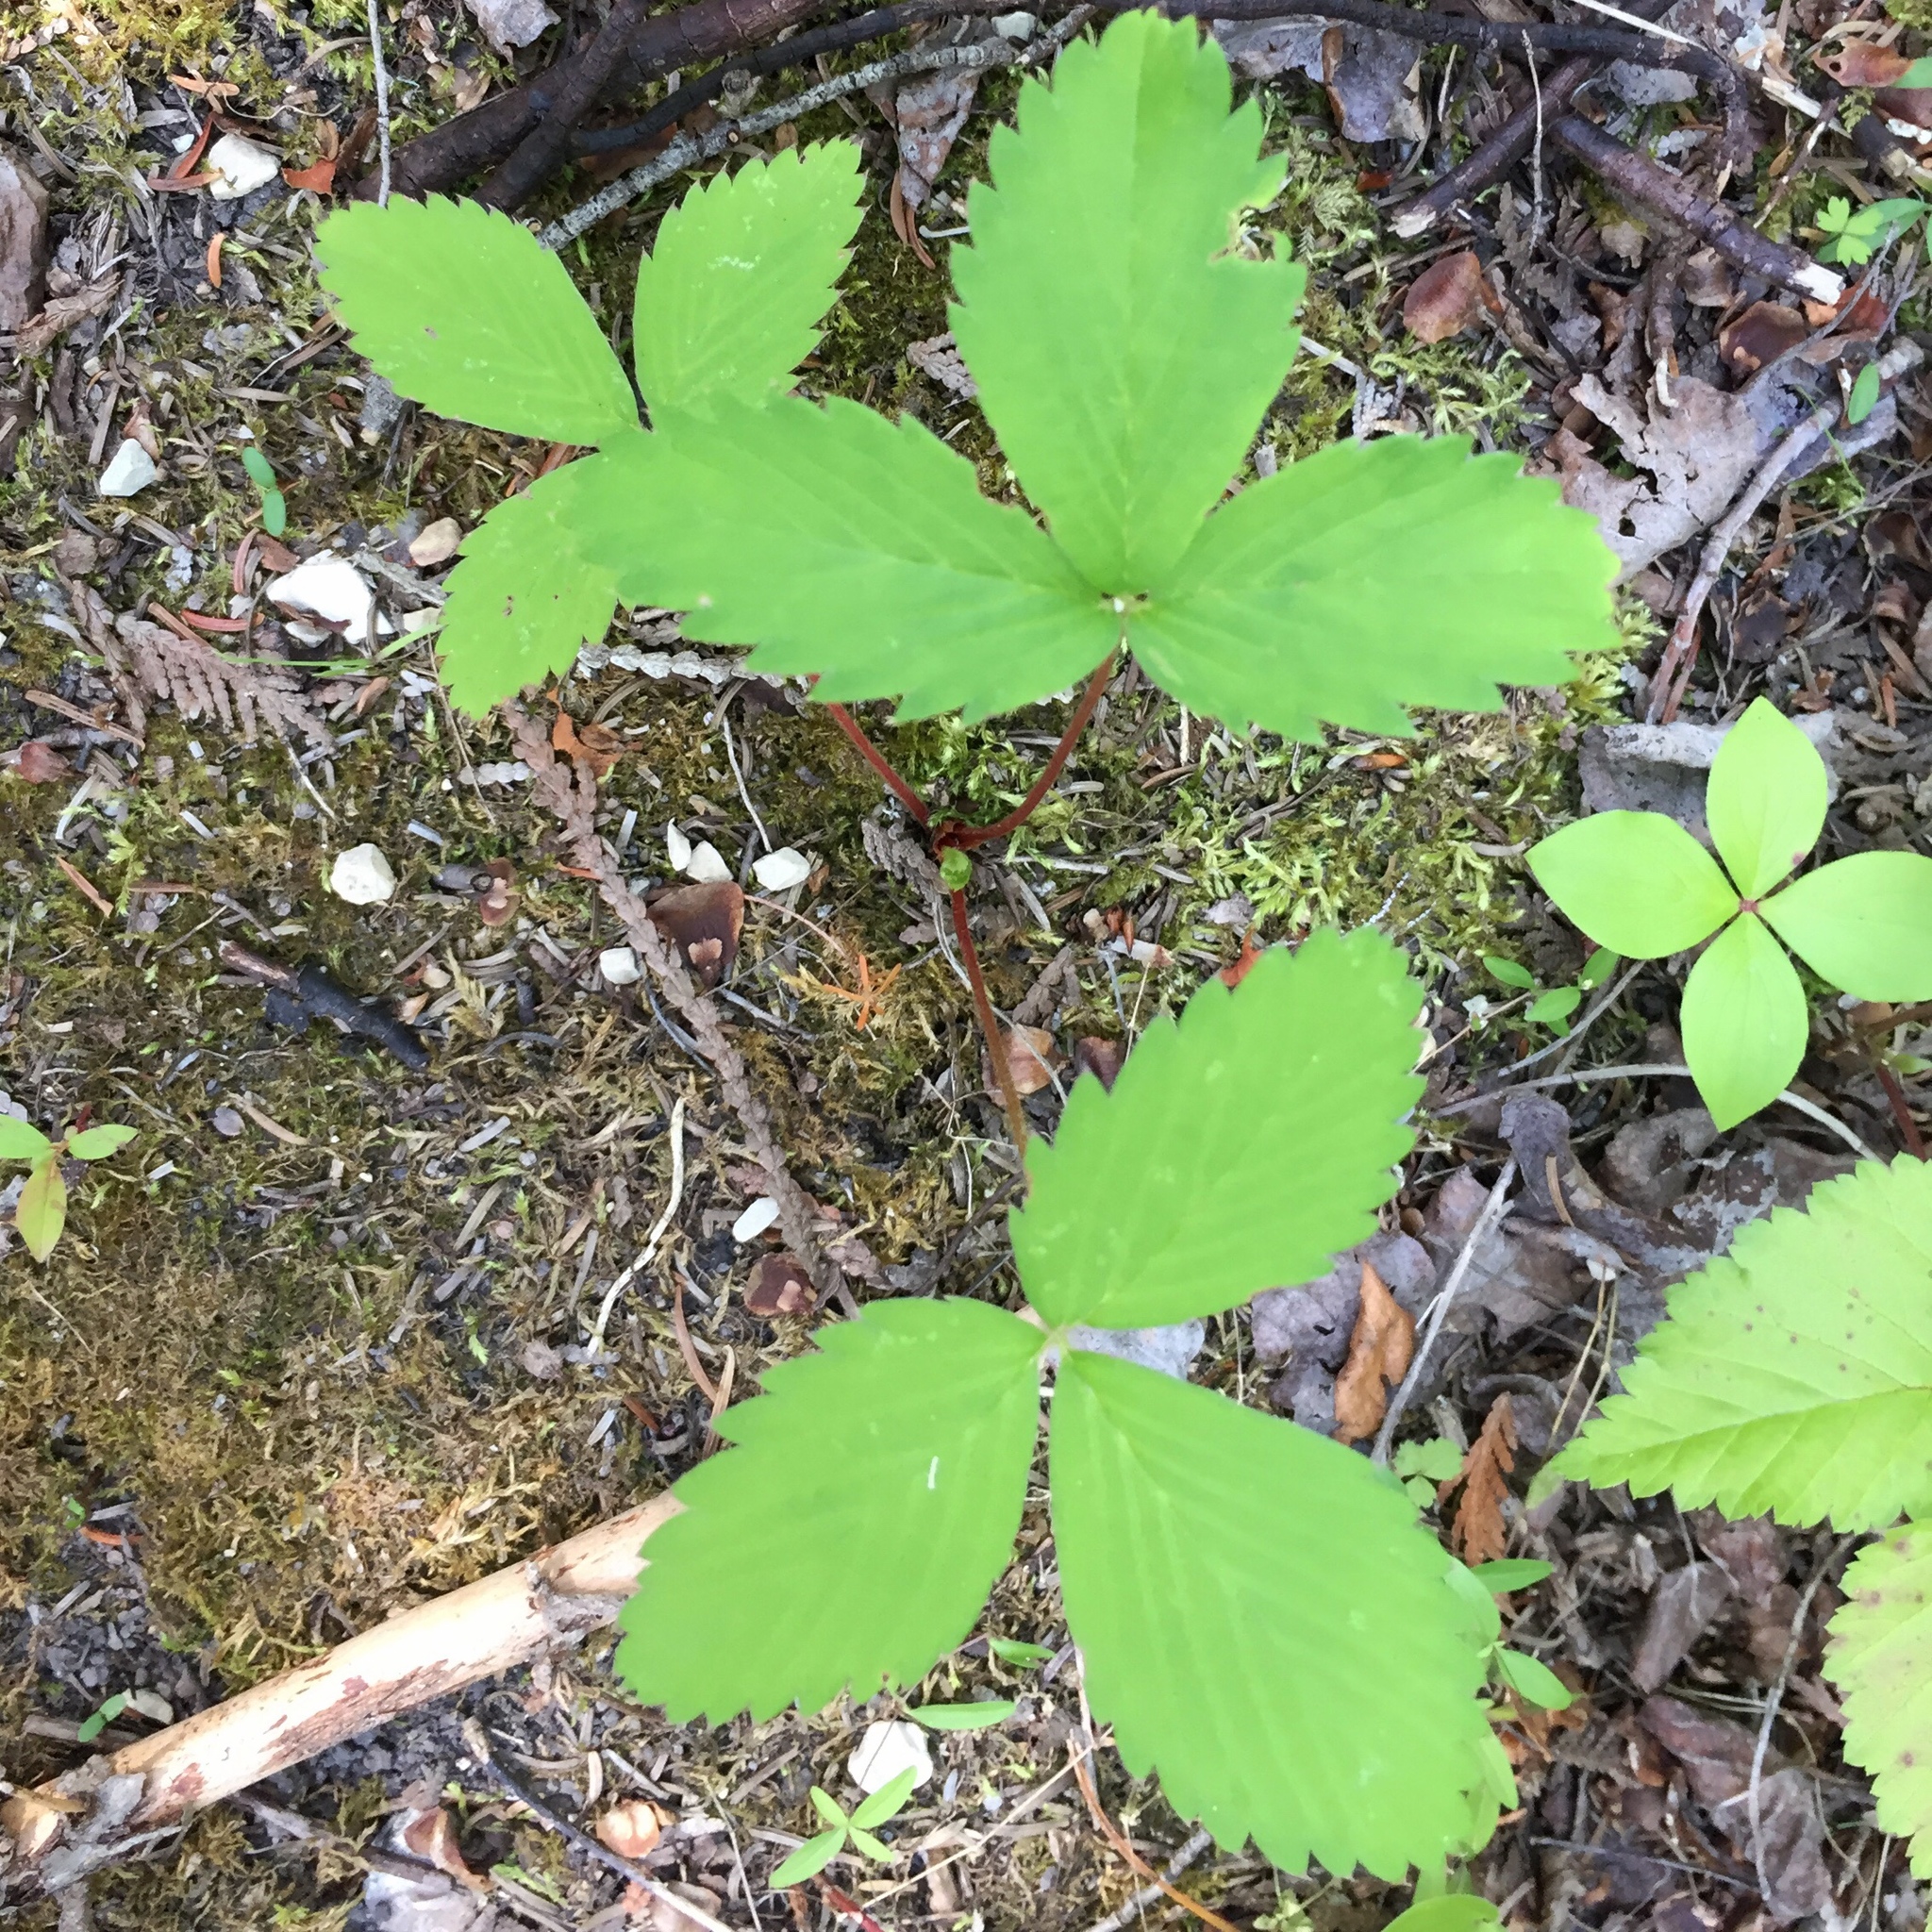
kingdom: Plantae
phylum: Tracheophyta
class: Magnoliopsida
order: Rosales
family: Rosaceae
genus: Fragaria
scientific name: Fragaria virginiana
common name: Thickleaved wild strawberry
